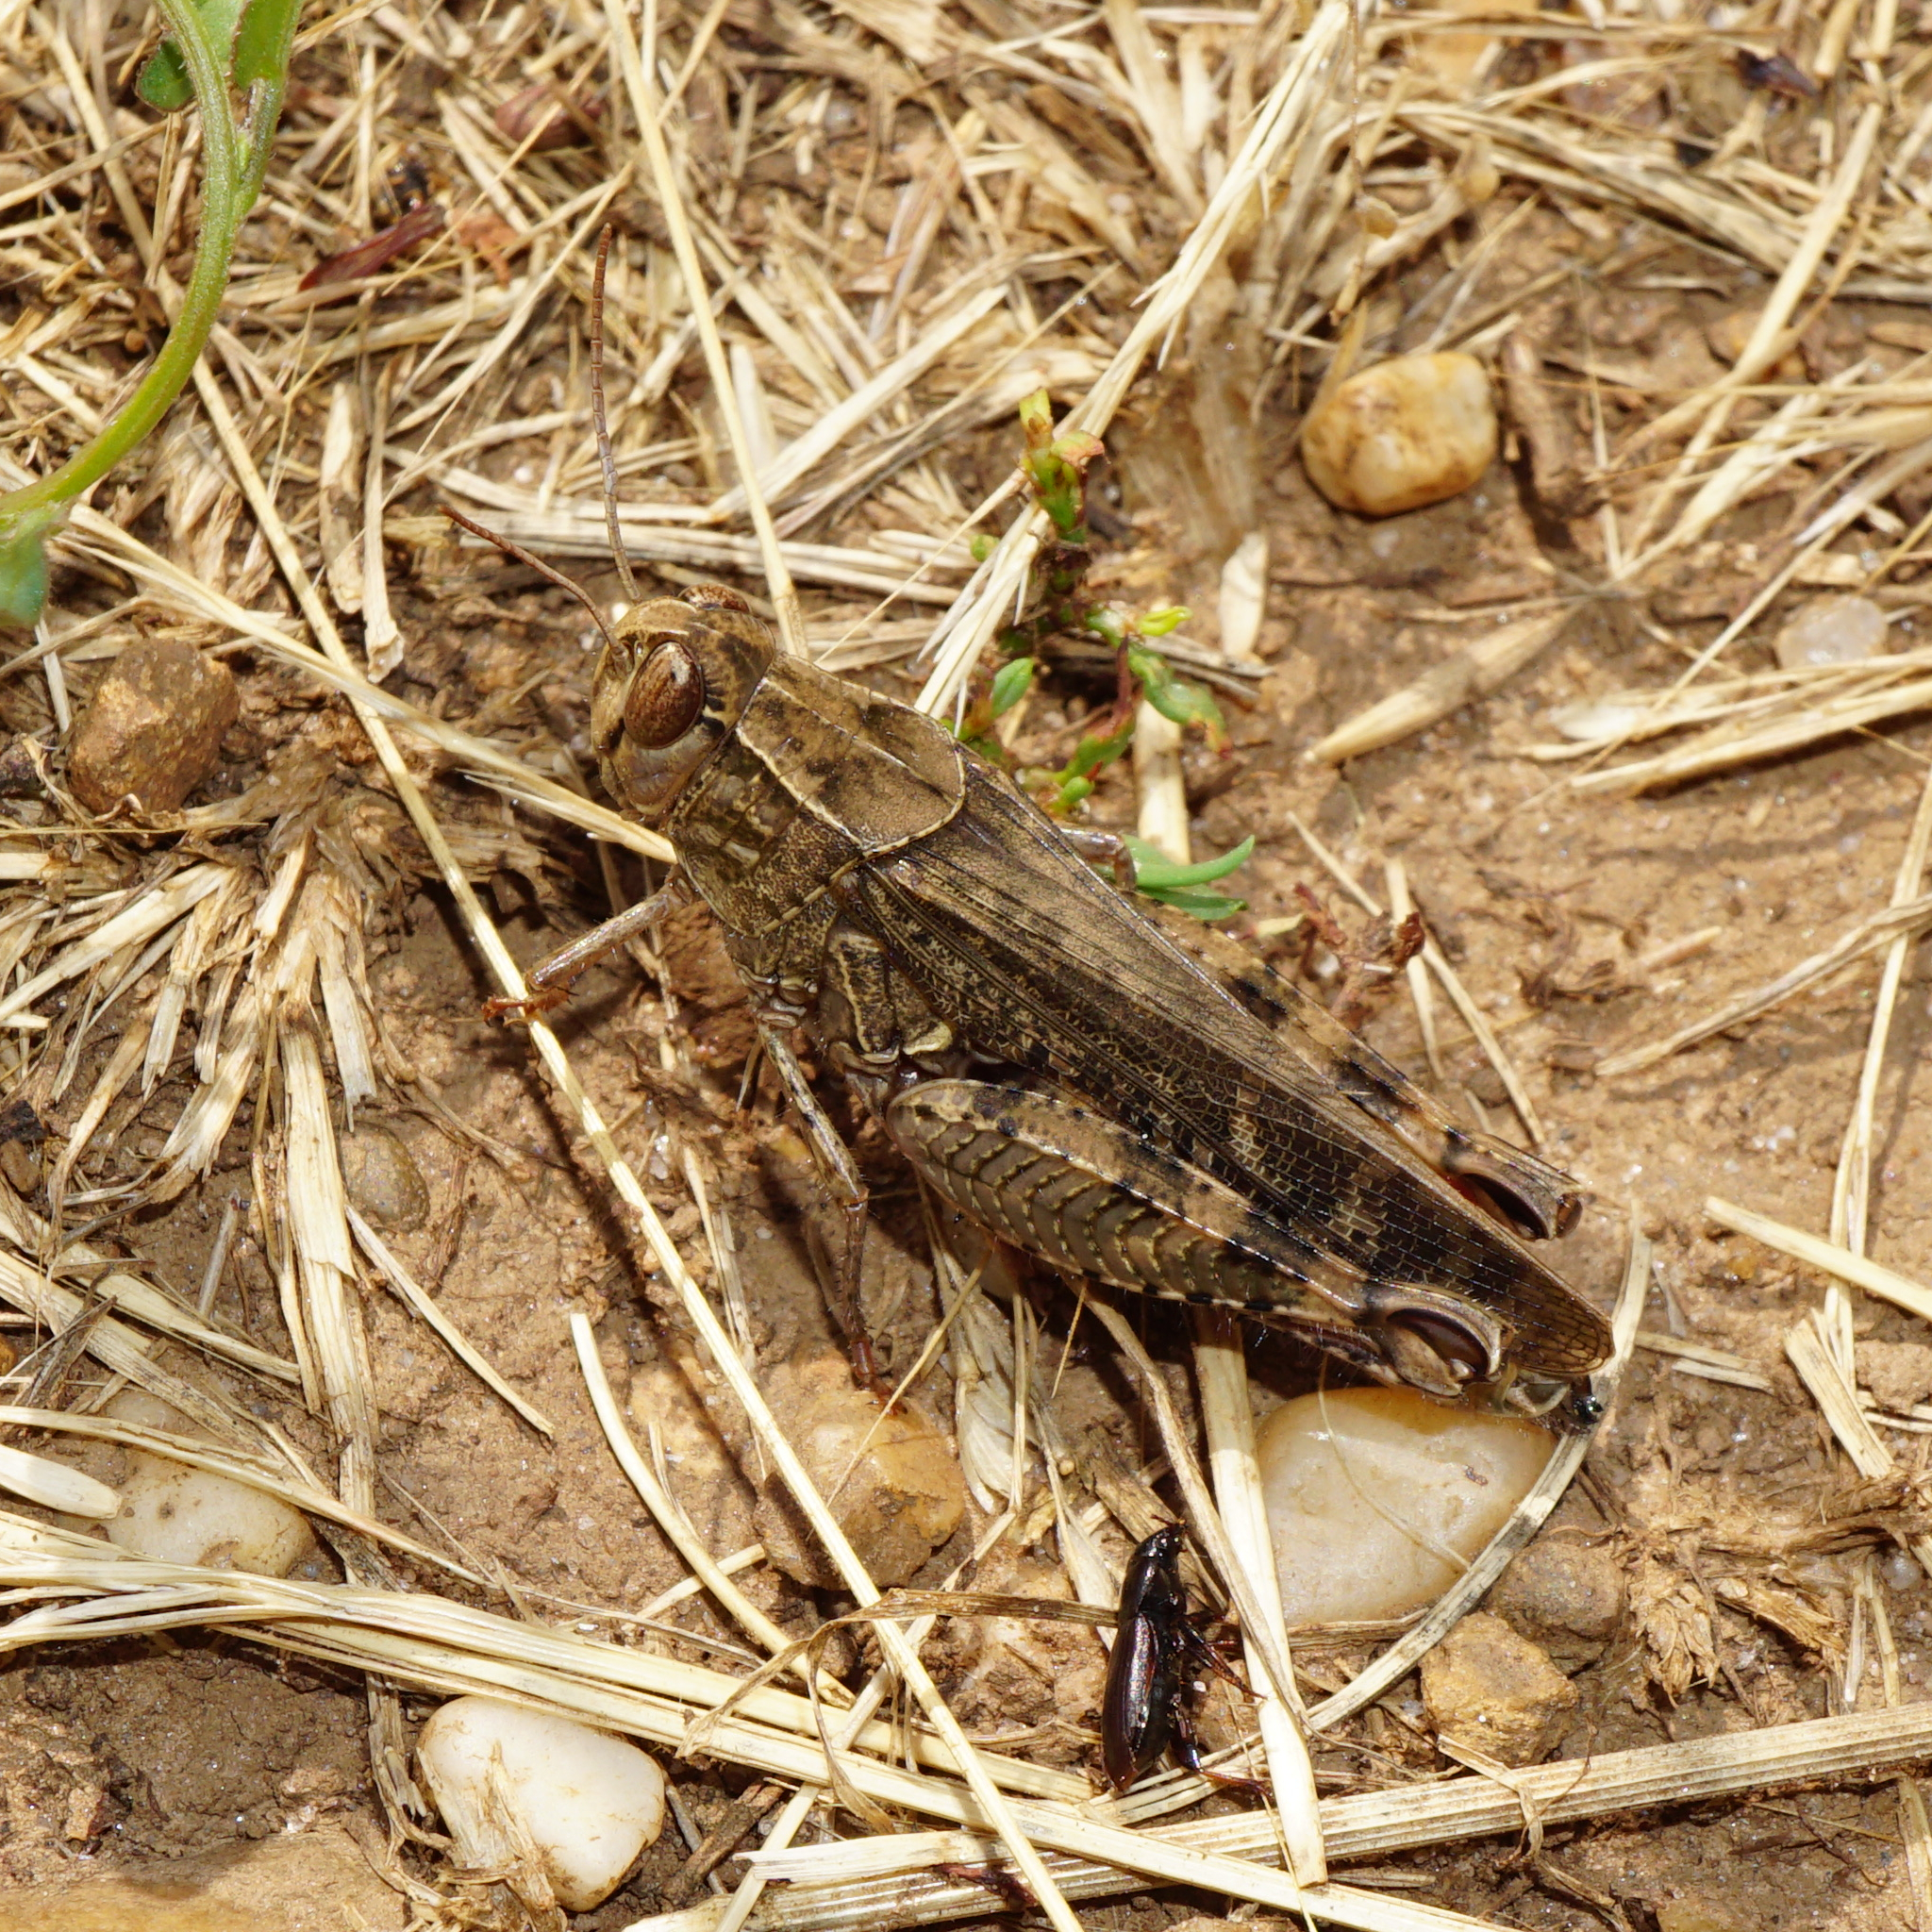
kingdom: Animalia
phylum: Arthropoda
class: Insecta
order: Orthoptera
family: Acrididae
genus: Calliptamus
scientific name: Calliptamus italicus
